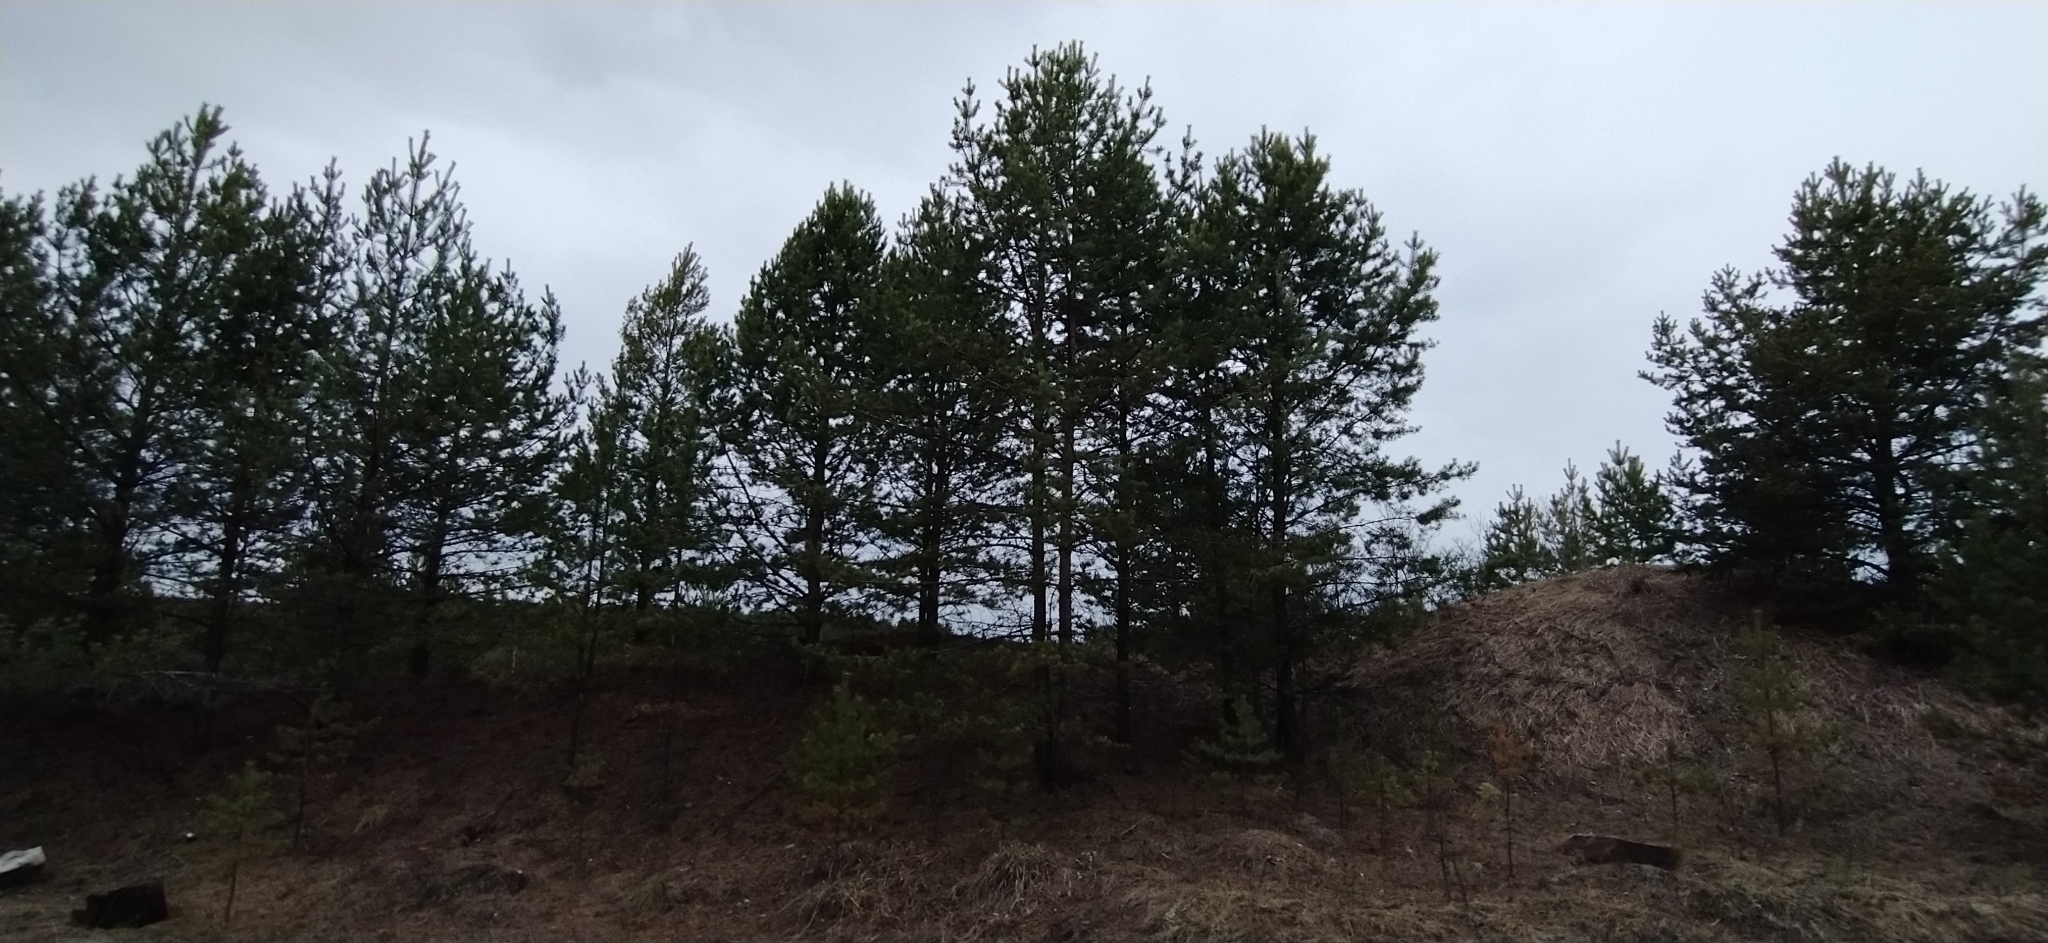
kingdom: Plantae
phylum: Tracheophyta
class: Pinopsida
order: Pinales
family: Pinaceae
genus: Pinus
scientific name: Pinus sylvestris
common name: Scots pine
